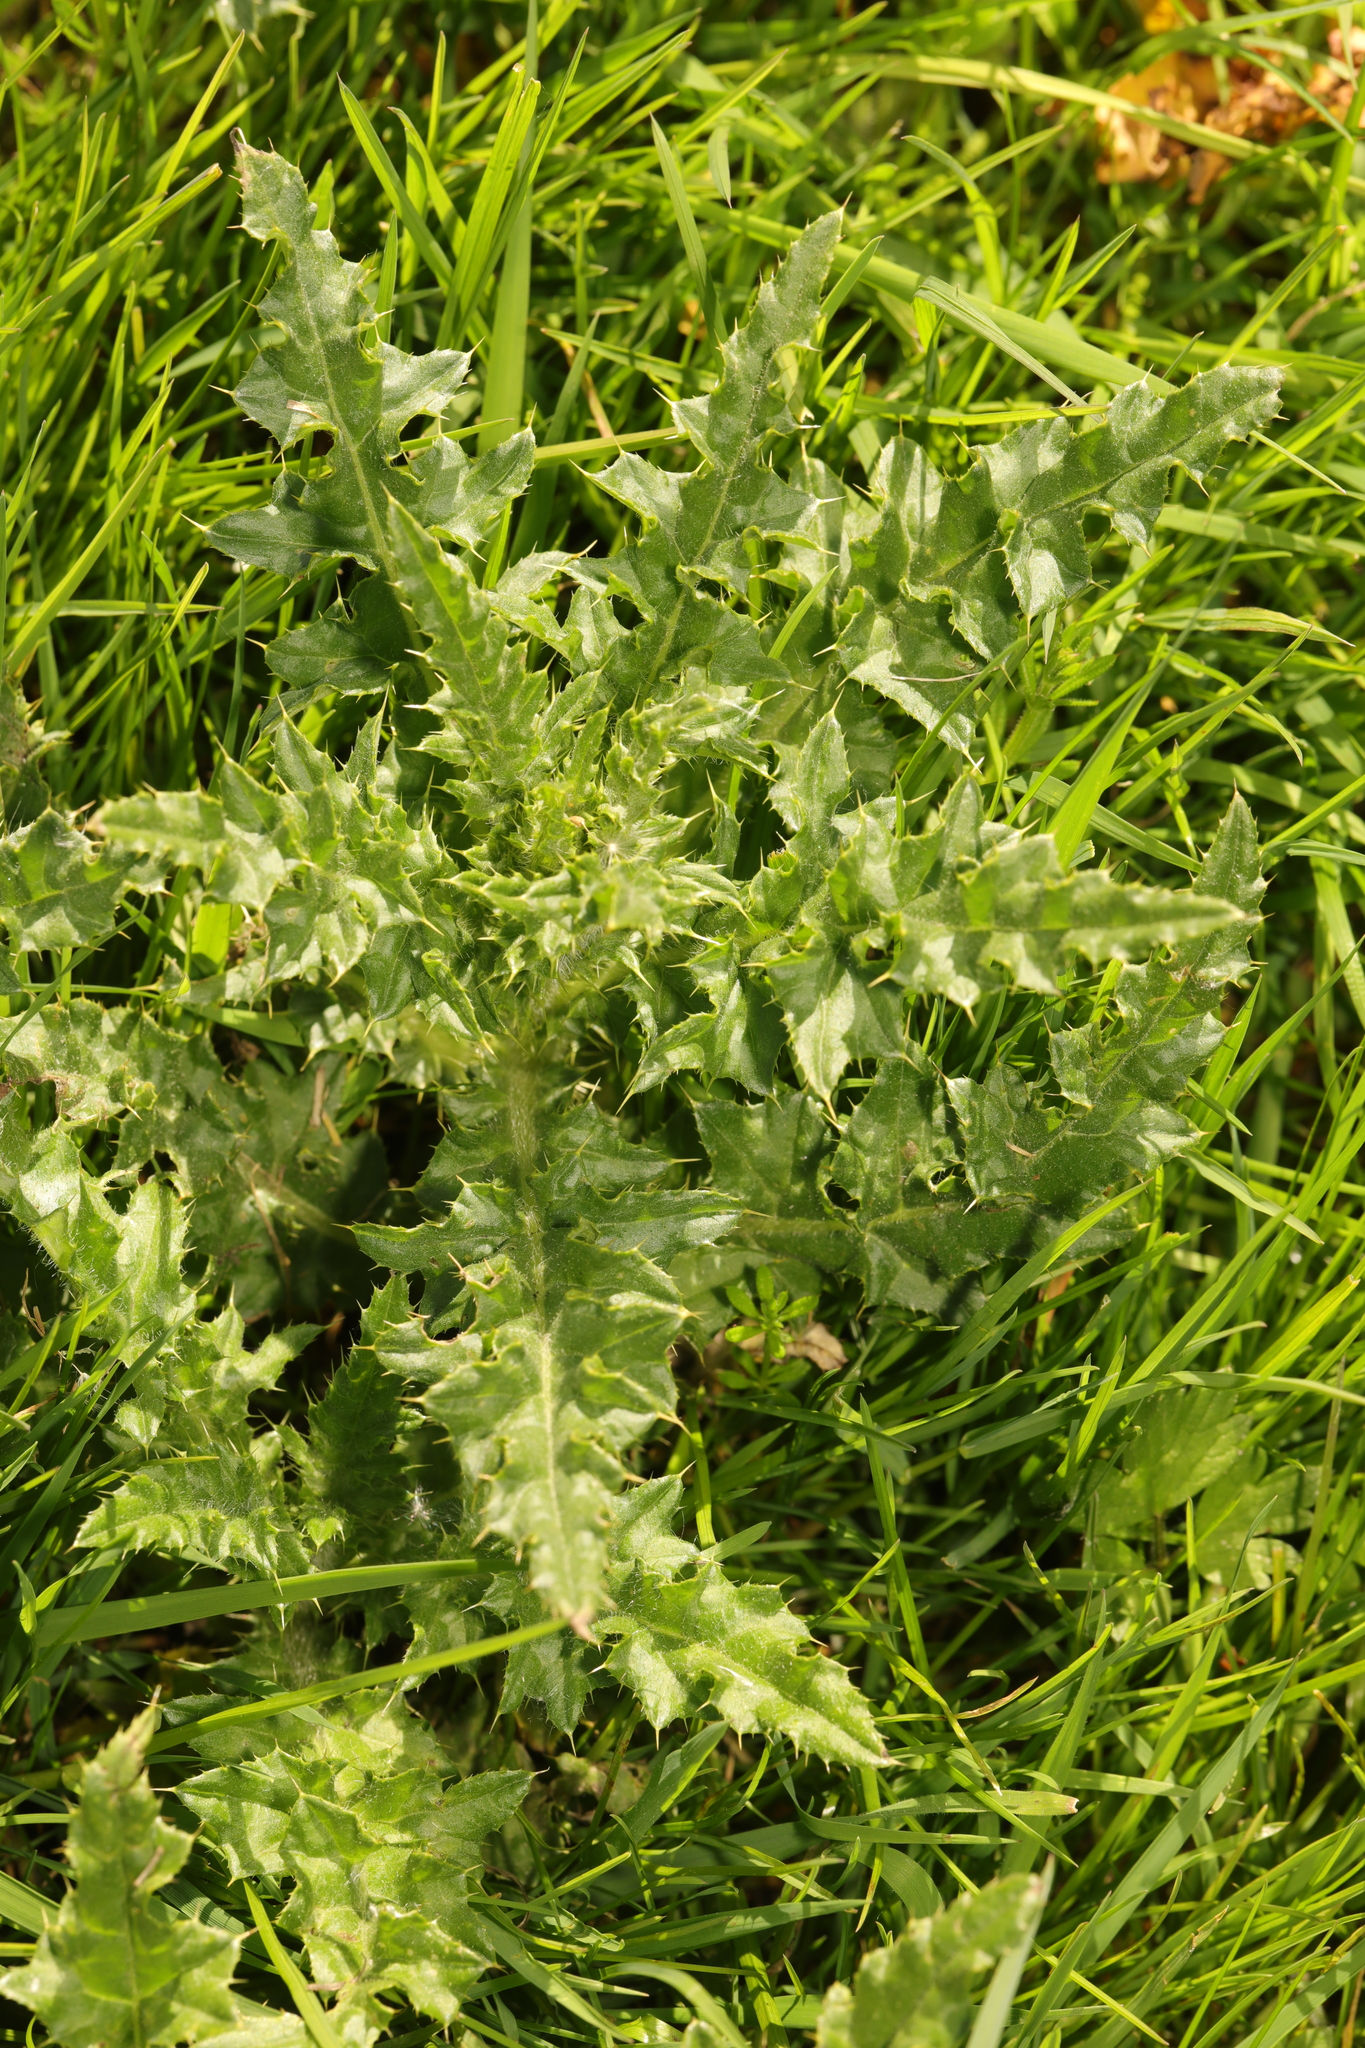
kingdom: Plantae
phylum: Tracheophyta
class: Magnoliopsida
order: Asterales
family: Asteraceae
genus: Cirsium
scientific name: Cirsium arvense
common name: Creeping thistle
